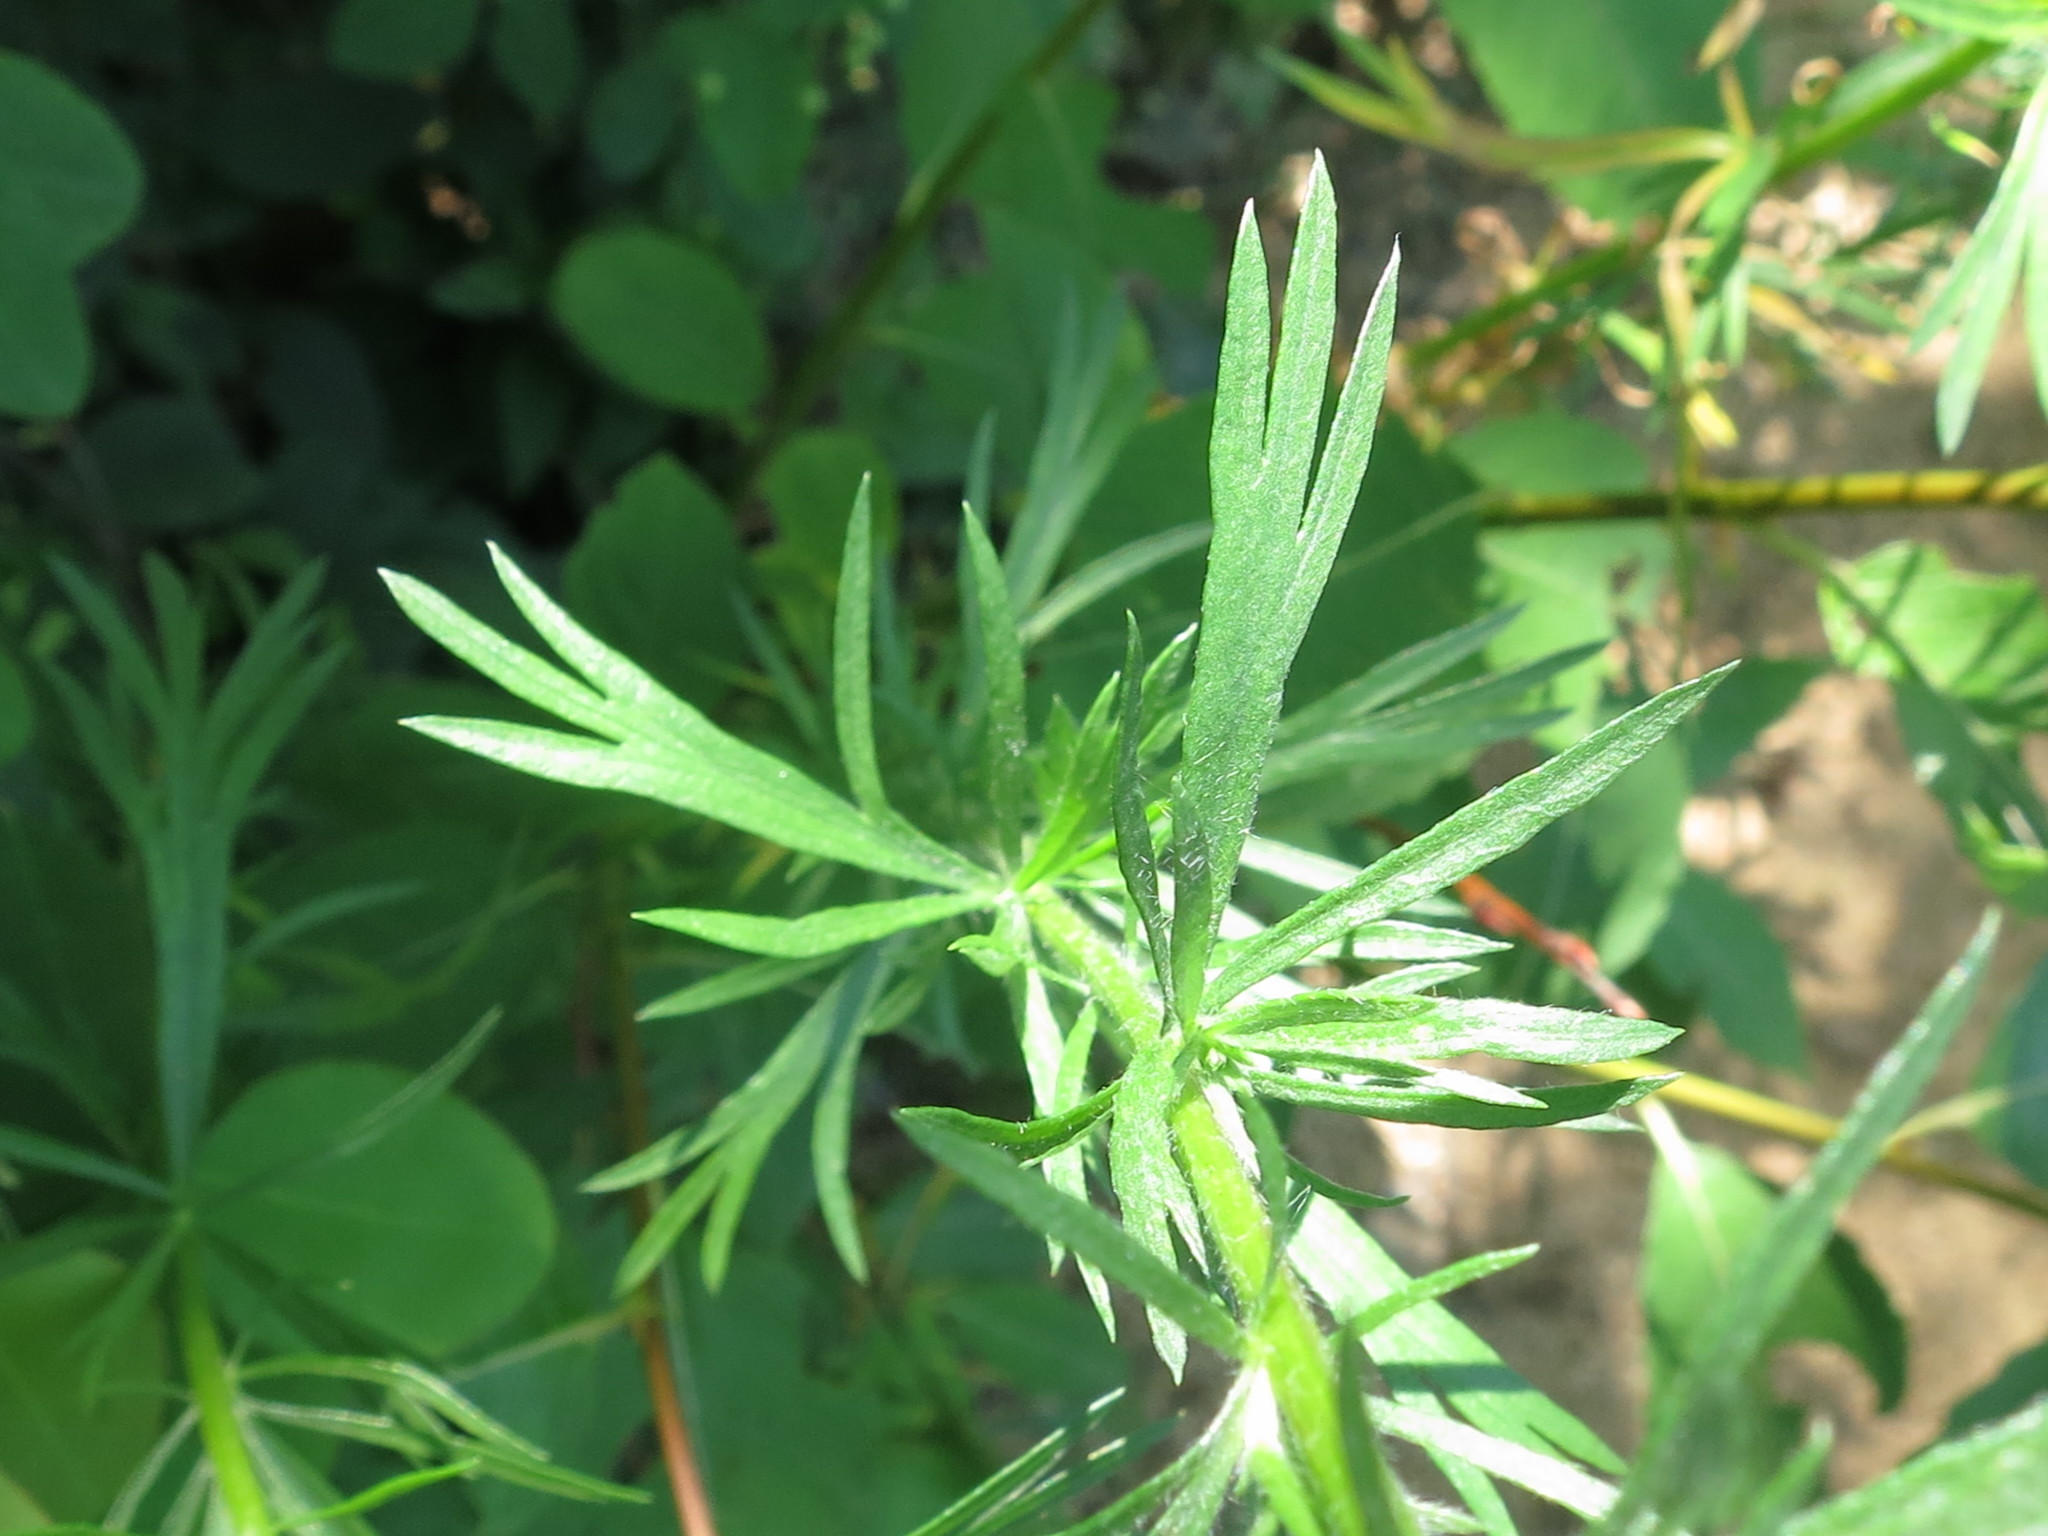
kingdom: Plantae
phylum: Tracheophyta
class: Magnoliopsida
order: Asterales
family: Asteraceae
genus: Artemisia
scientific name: Artemisia vulgaris
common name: Mugwort
